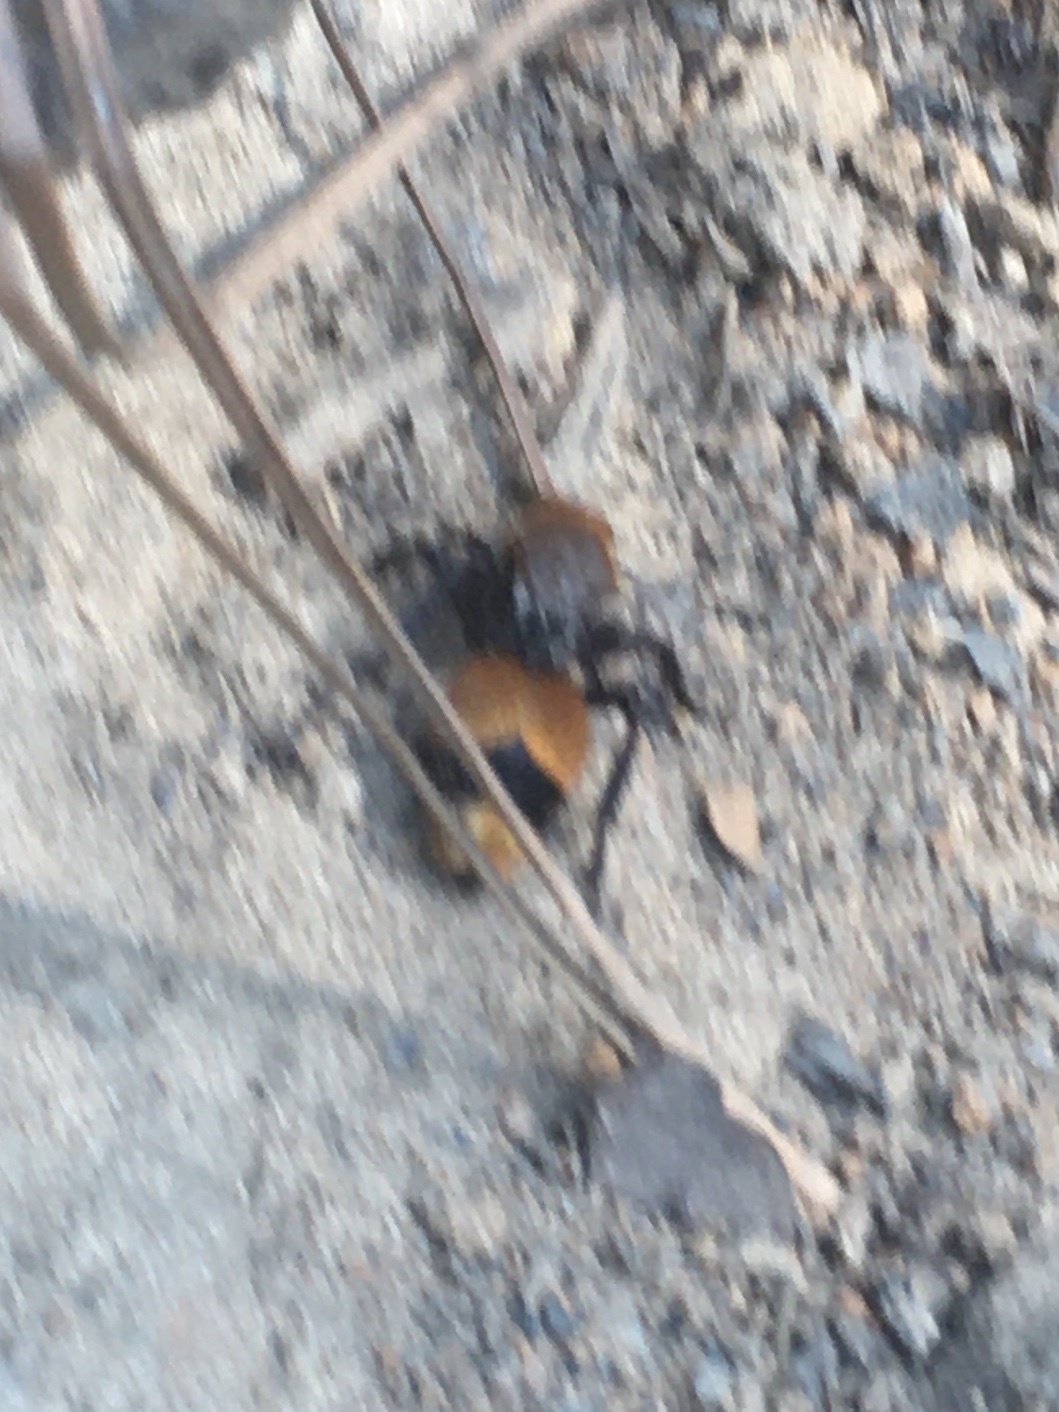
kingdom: Animalia
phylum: Arthropoda
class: Insecta
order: Hymenoptera
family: Mutillidae
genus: Dasymutilla
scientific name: Dasymutilla occidentalis
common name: Common eastern velvet ant
